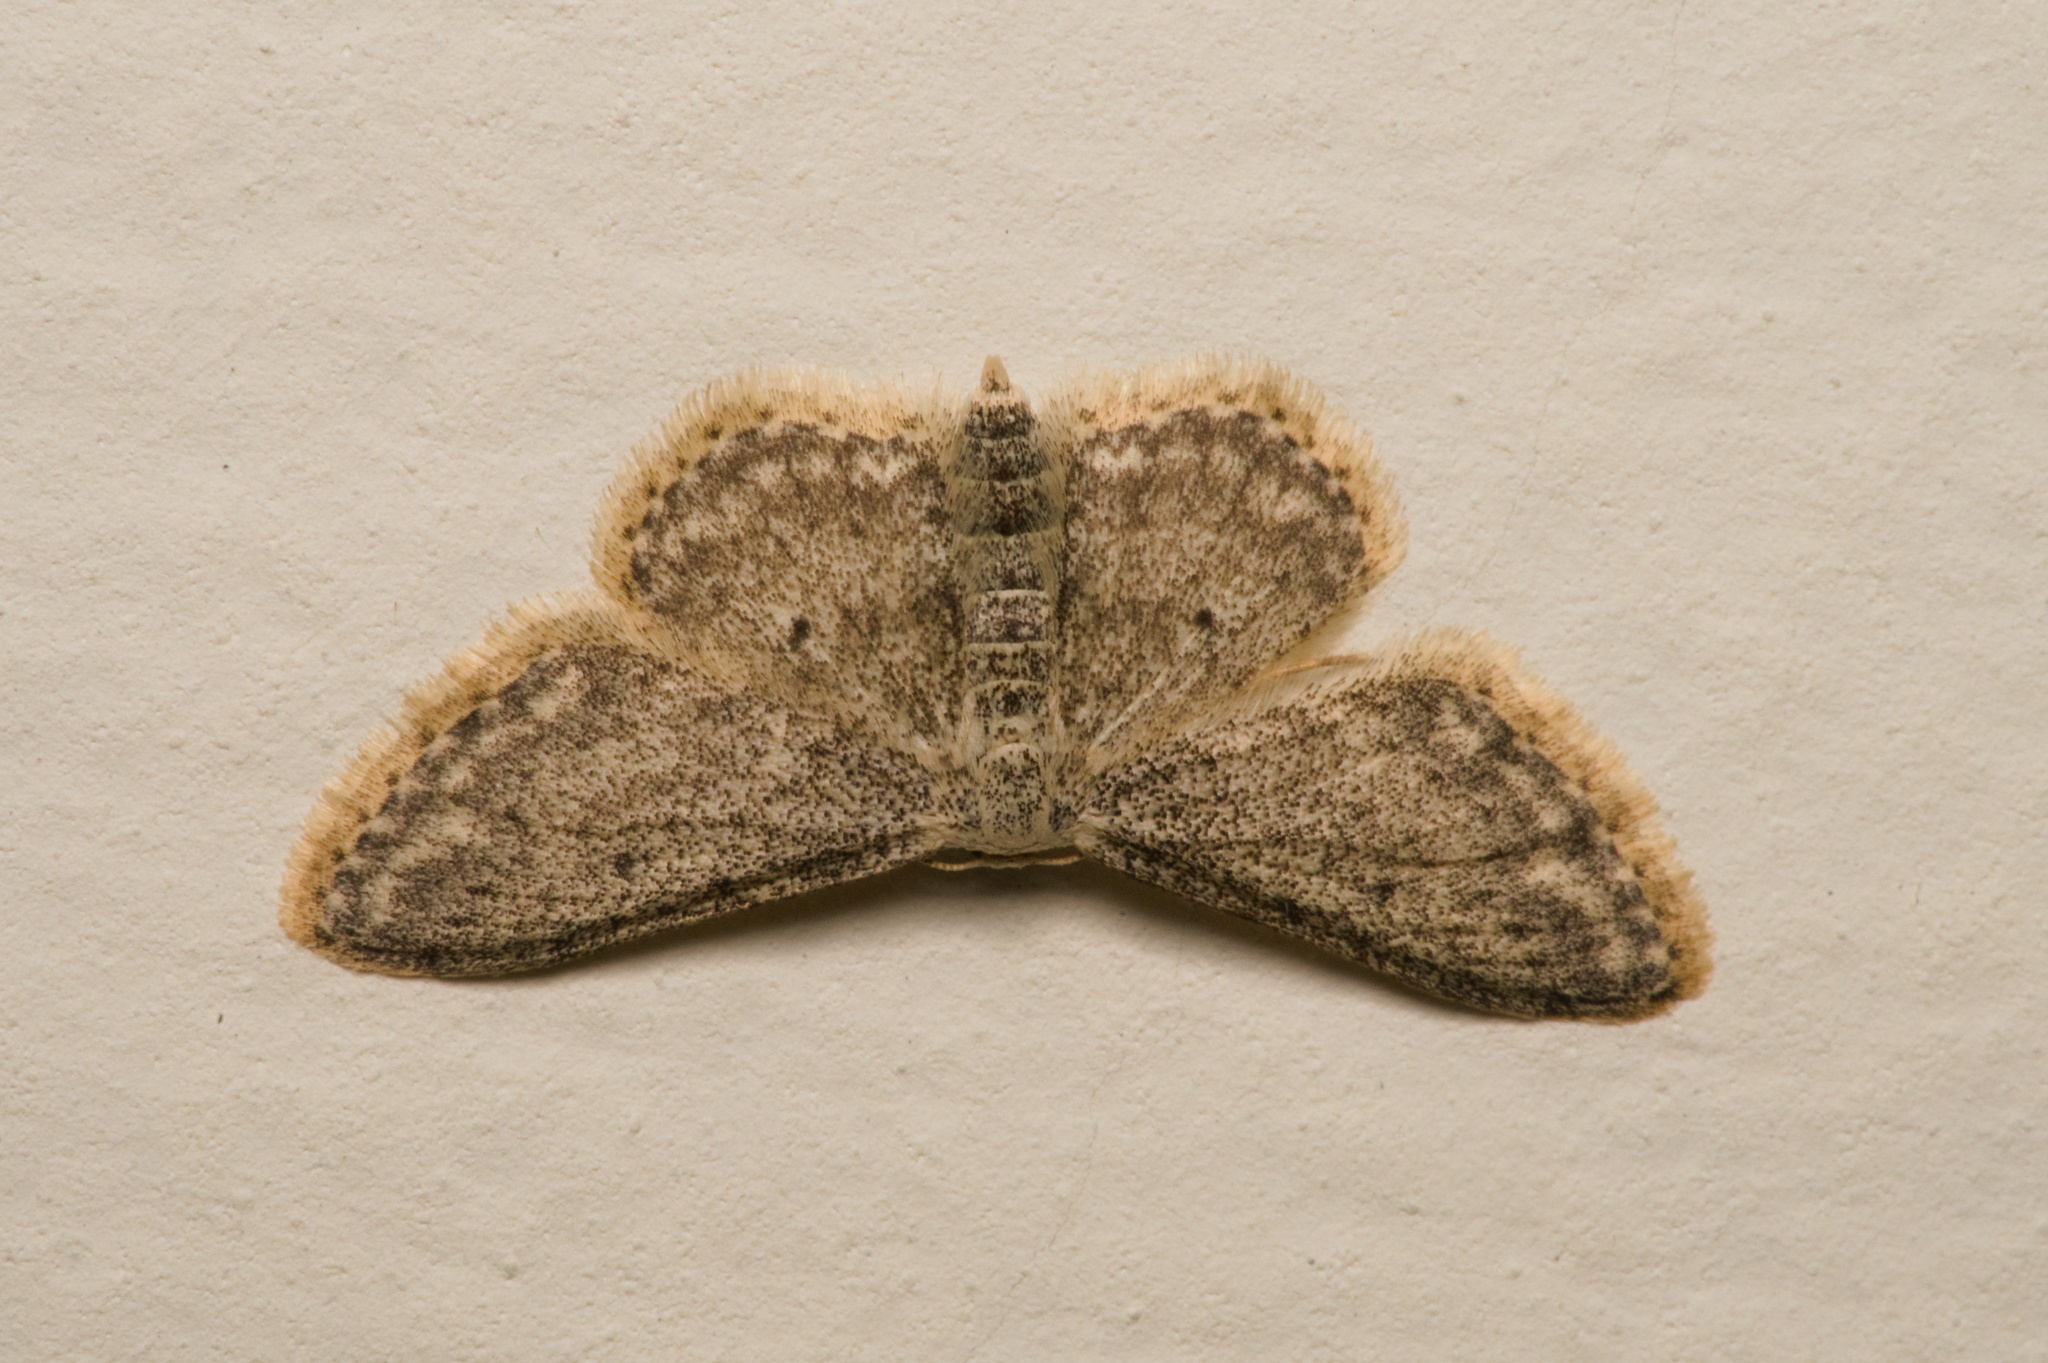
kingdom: Animalia
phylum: Arthropoda
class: Insecta
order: Lepidoptera
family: Geometridae
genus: Idaea
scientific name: Idaea seriata
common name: Small dusty wave
